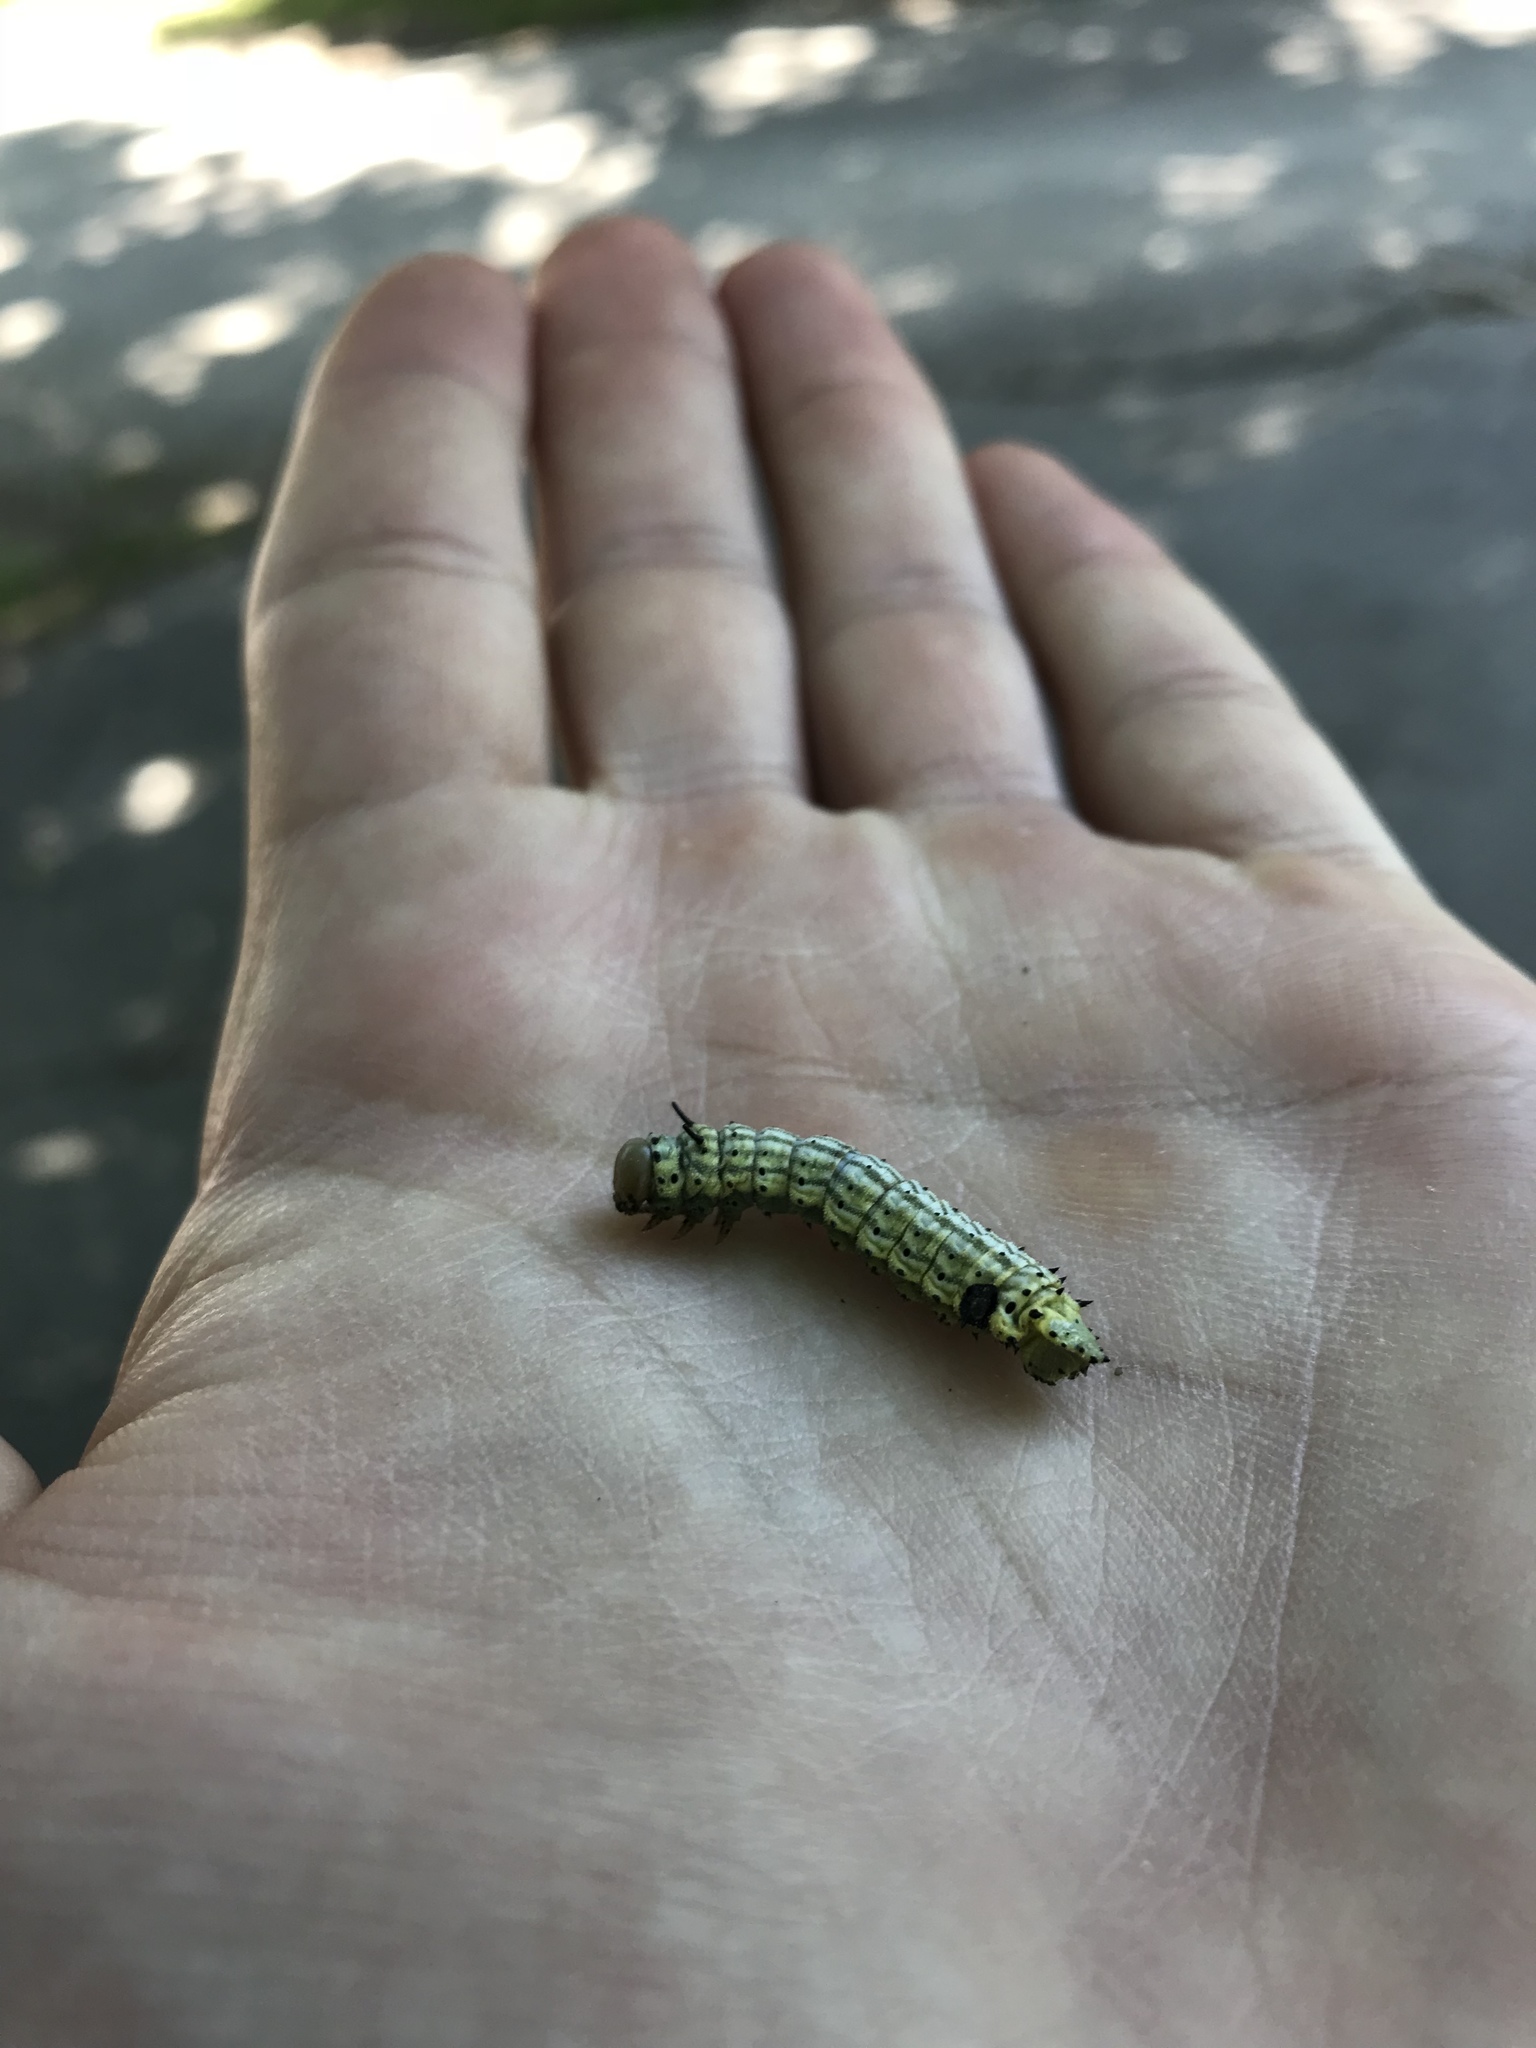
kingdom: Animalia
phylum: Arthropoda
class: Insecta
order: Lepidoptera
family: Saturniidae
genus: Dryocampa
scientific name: Dryocampa rubicunda
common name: Rosy maple moth
